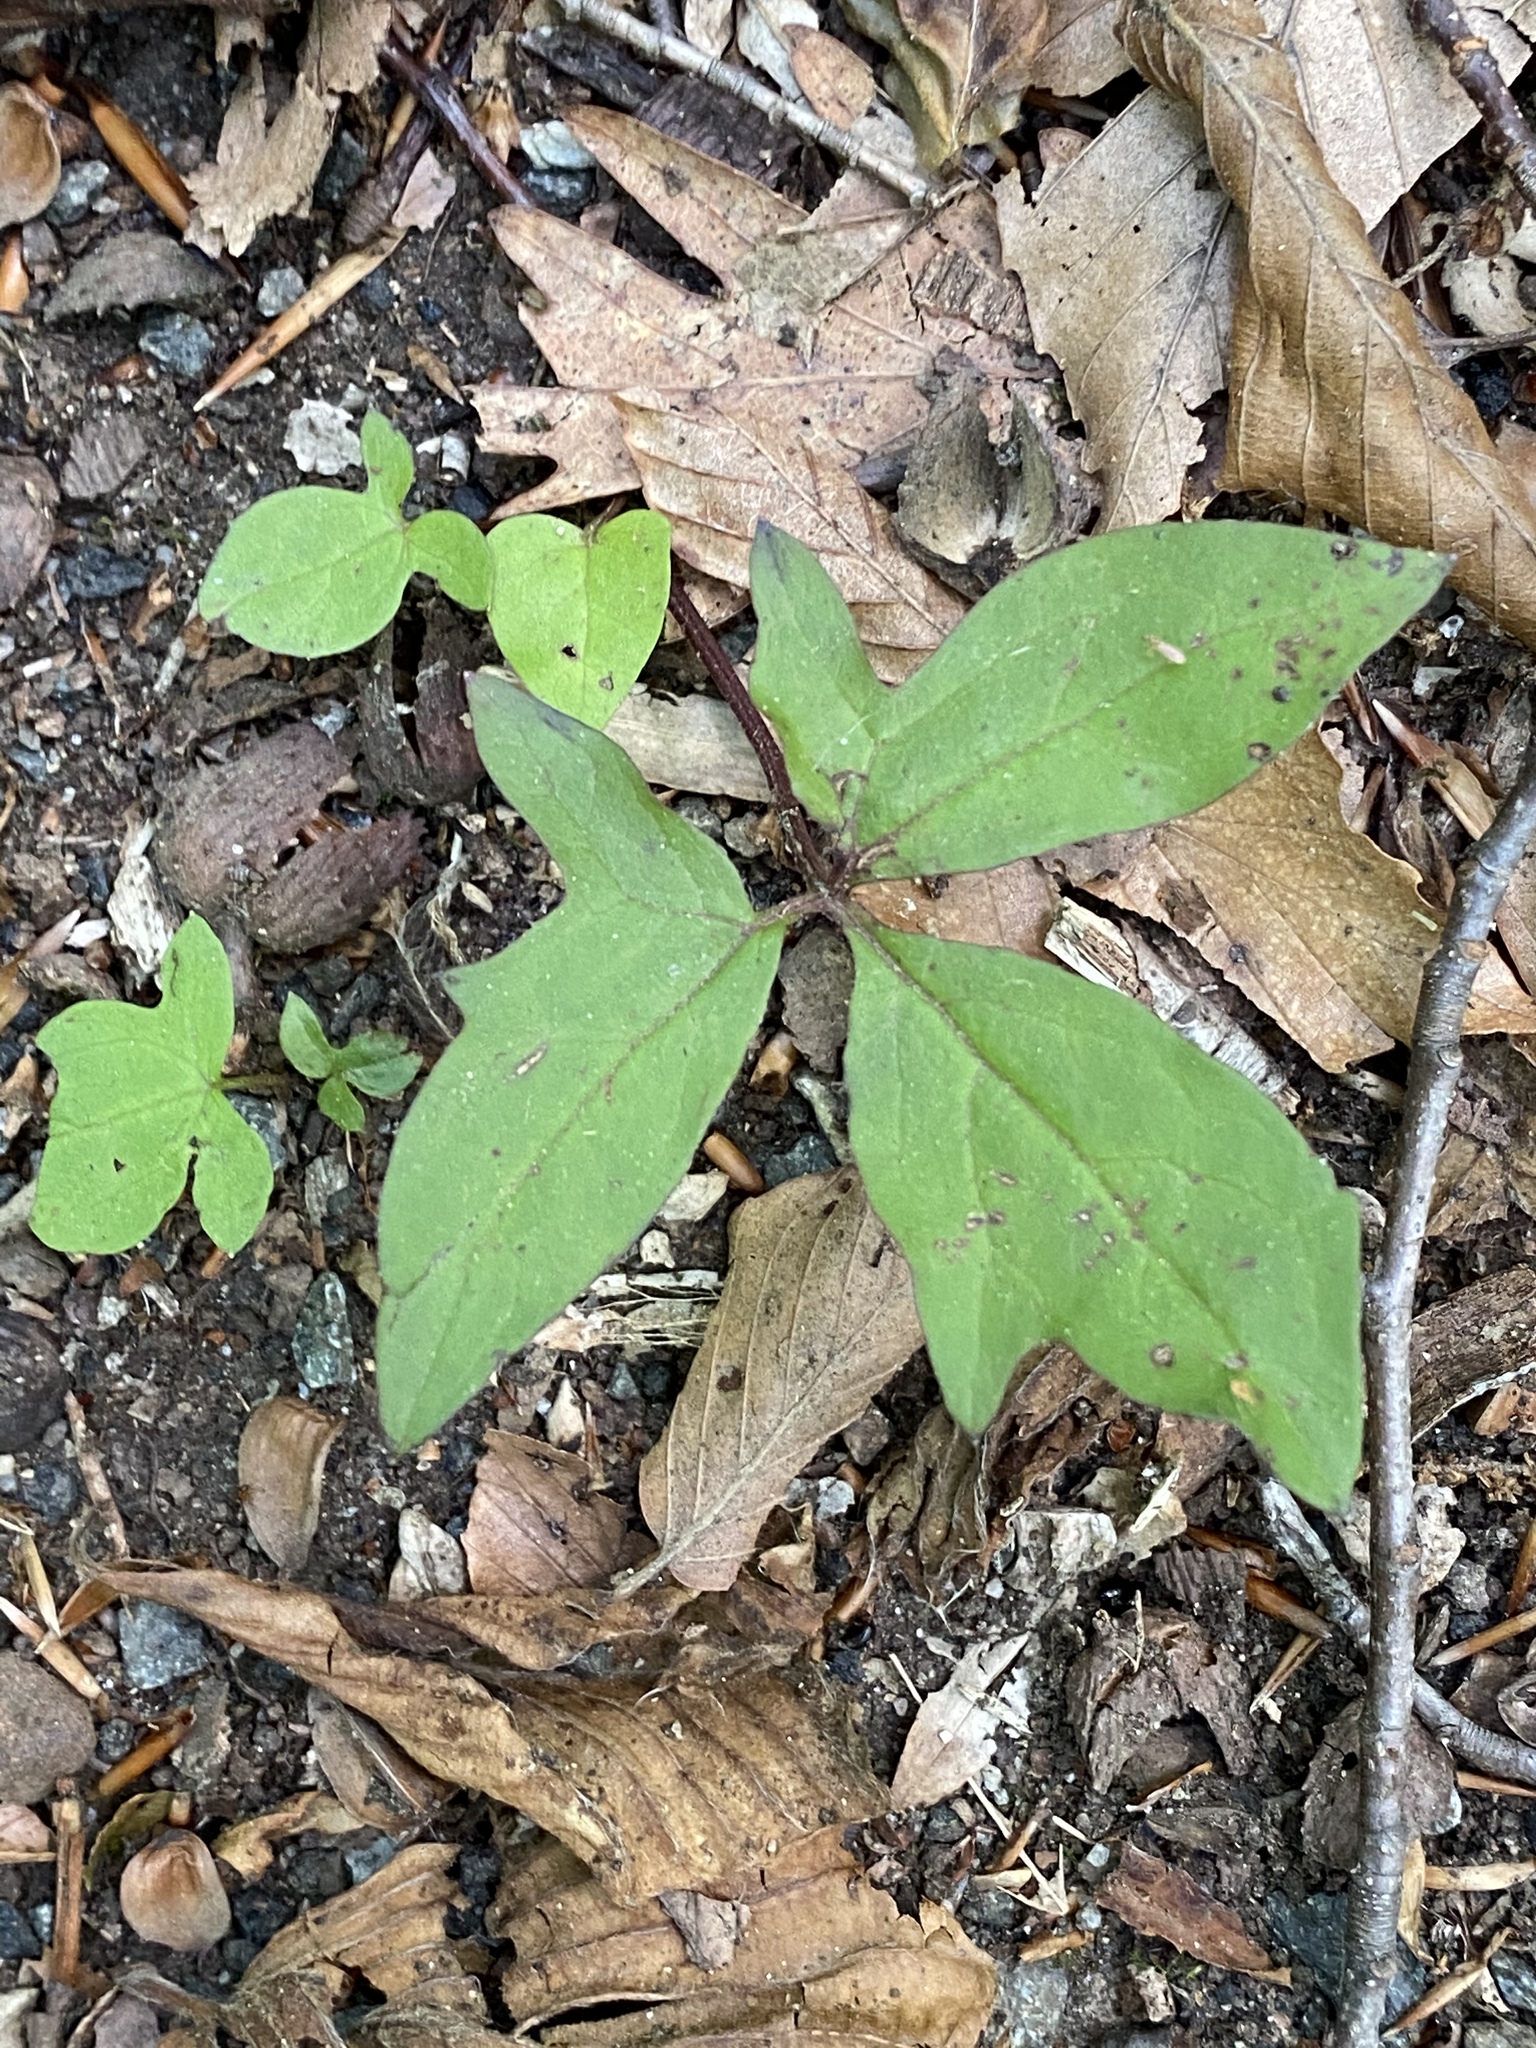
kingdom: Plantae
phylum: Tracheophyta
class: Magnoliopsida
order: Asterales
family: Asteraceae
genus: Nabalus
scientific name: Nabalus trifoliolatus
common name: Gall-of-the-earth
